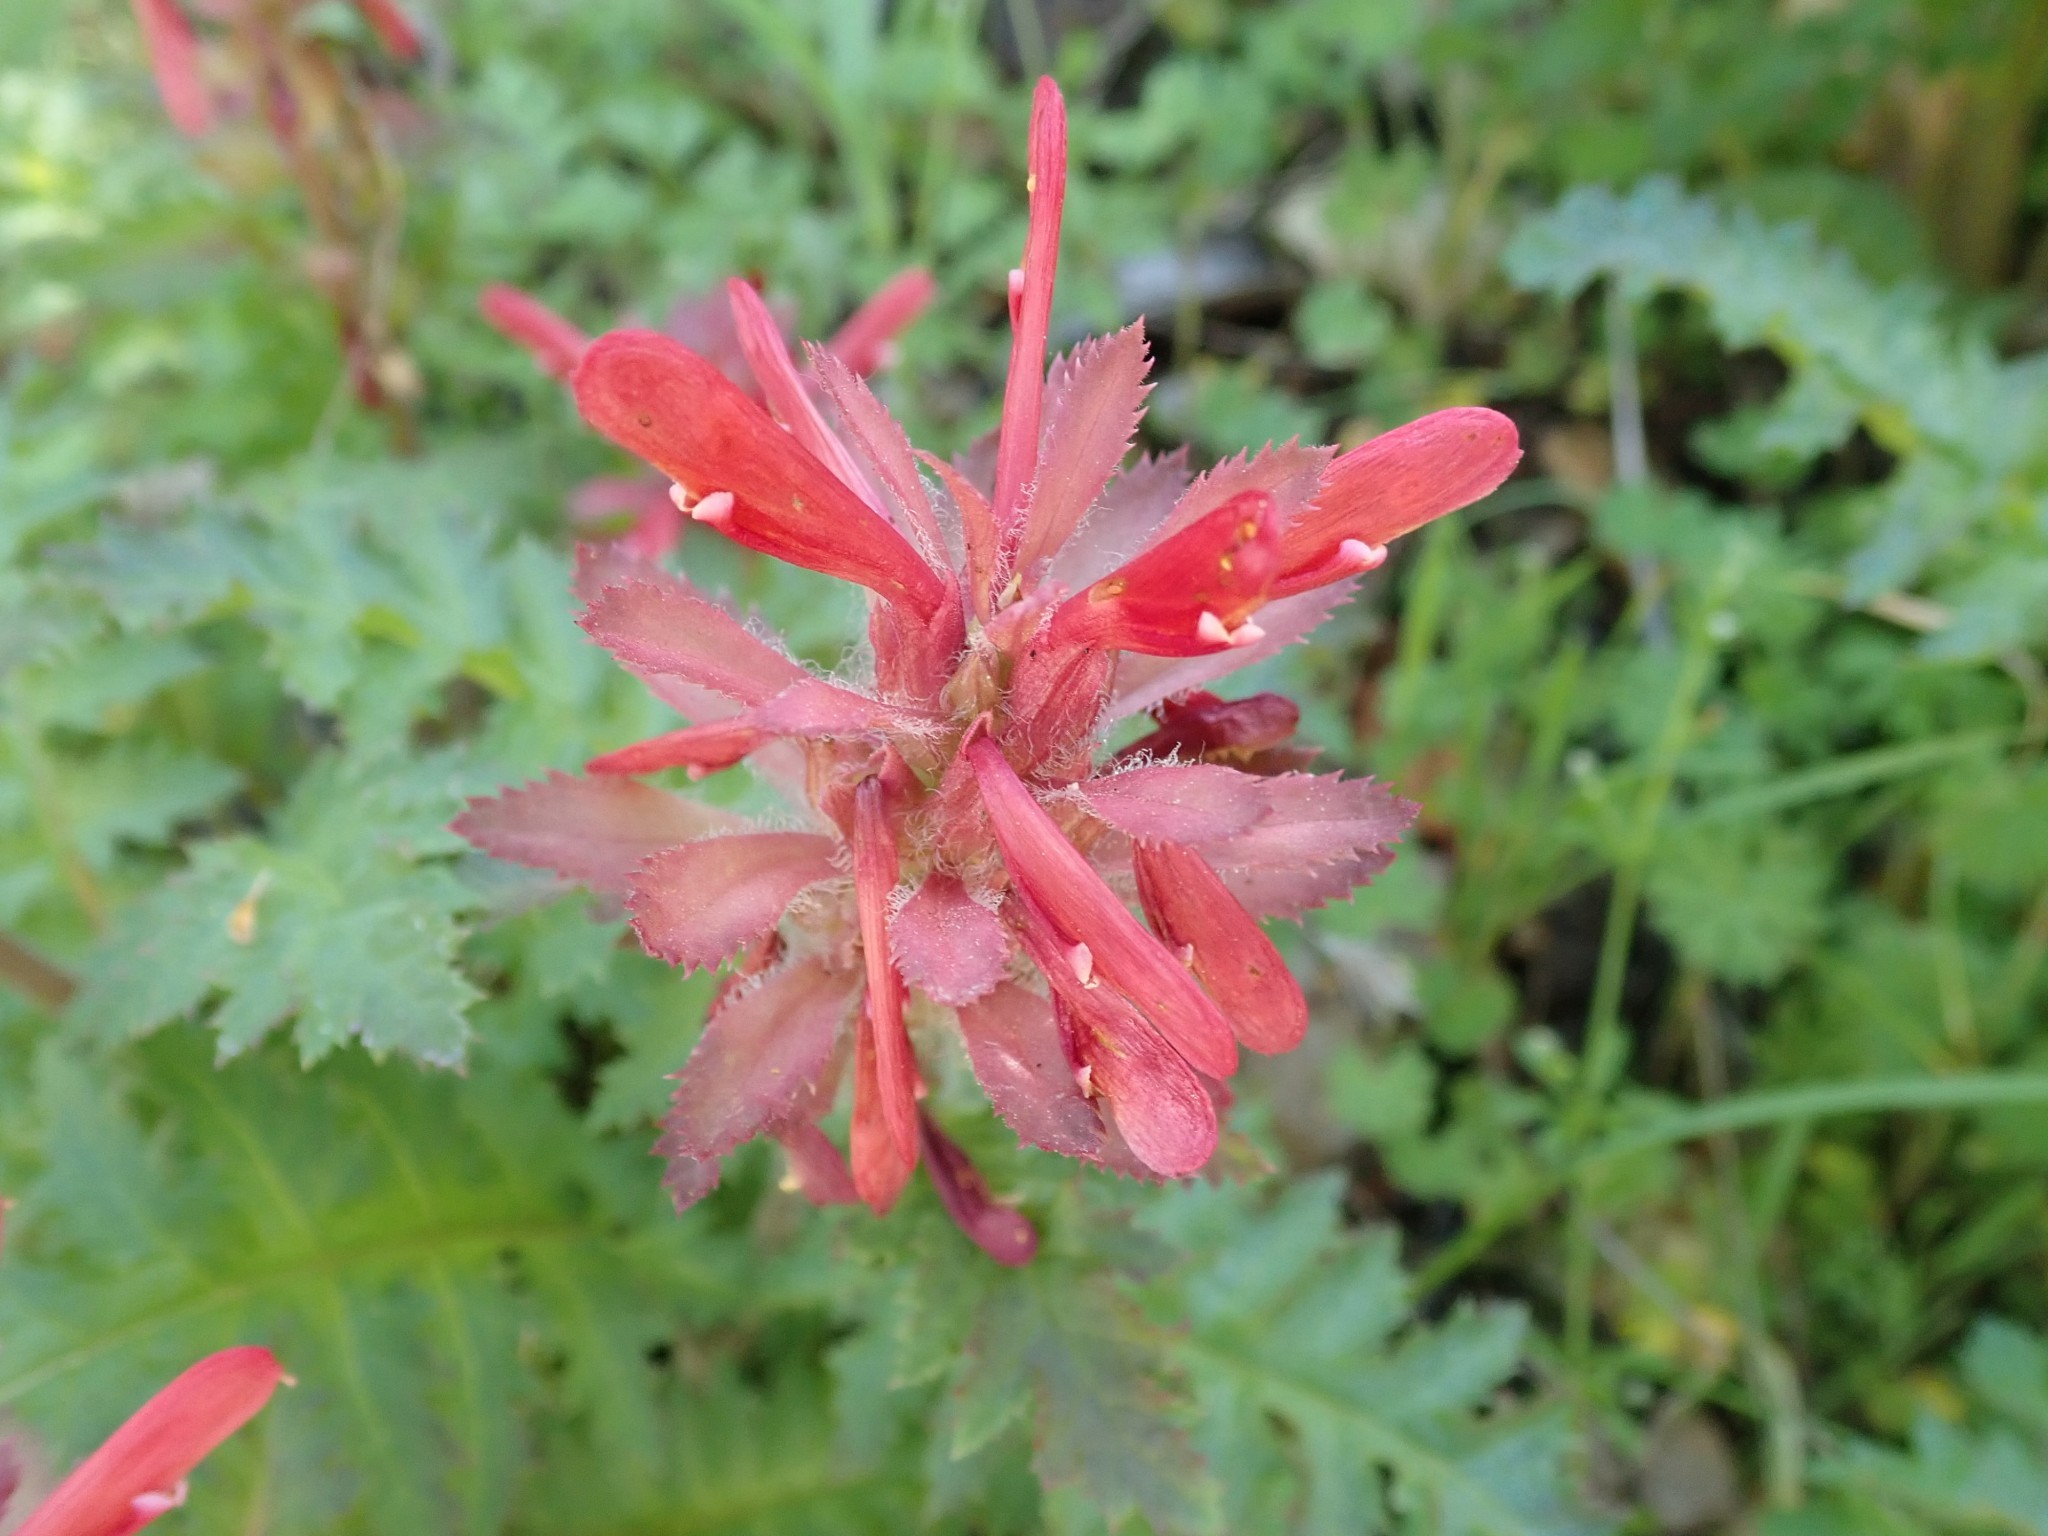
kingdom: Plantae
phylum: Tracheophyta
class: Magnoliopsida
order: Lamiales
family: Orobanchaceae
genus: Pedicularis
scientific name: Pedicularis densiflora
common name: Indian warrior
